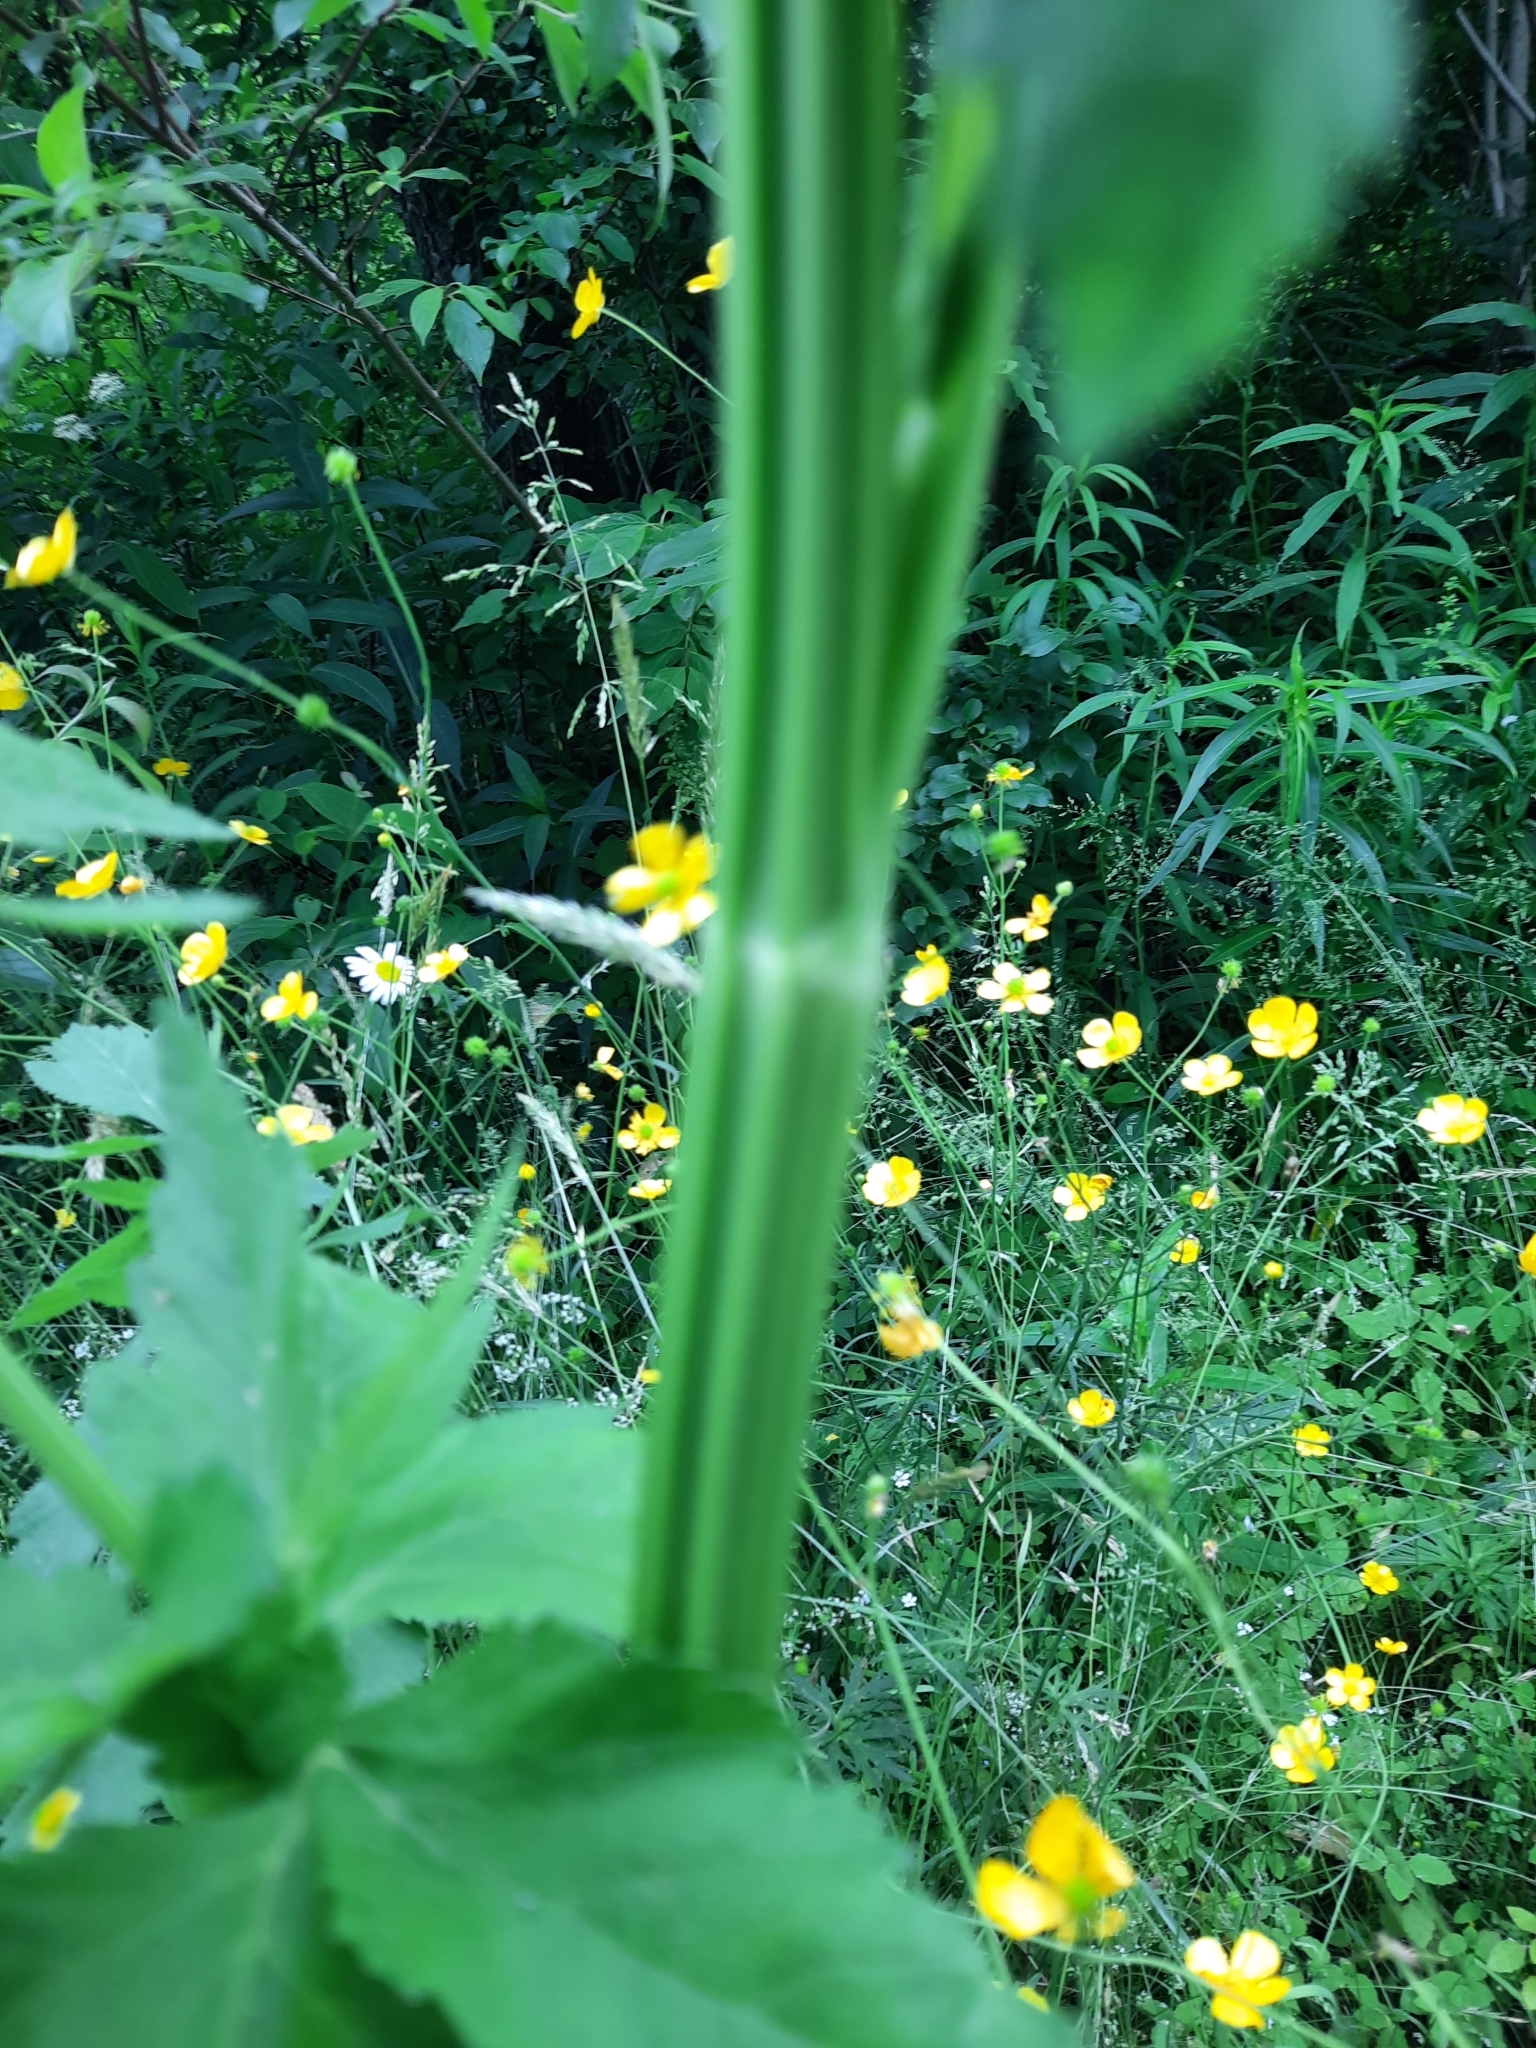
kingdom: Plantae
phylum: Tracheophyta
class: Magnoliopsida
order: Apiales
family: Apiaceae
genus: Pastinaca
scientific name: Pastinaca sativa
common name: Wild parsnip
